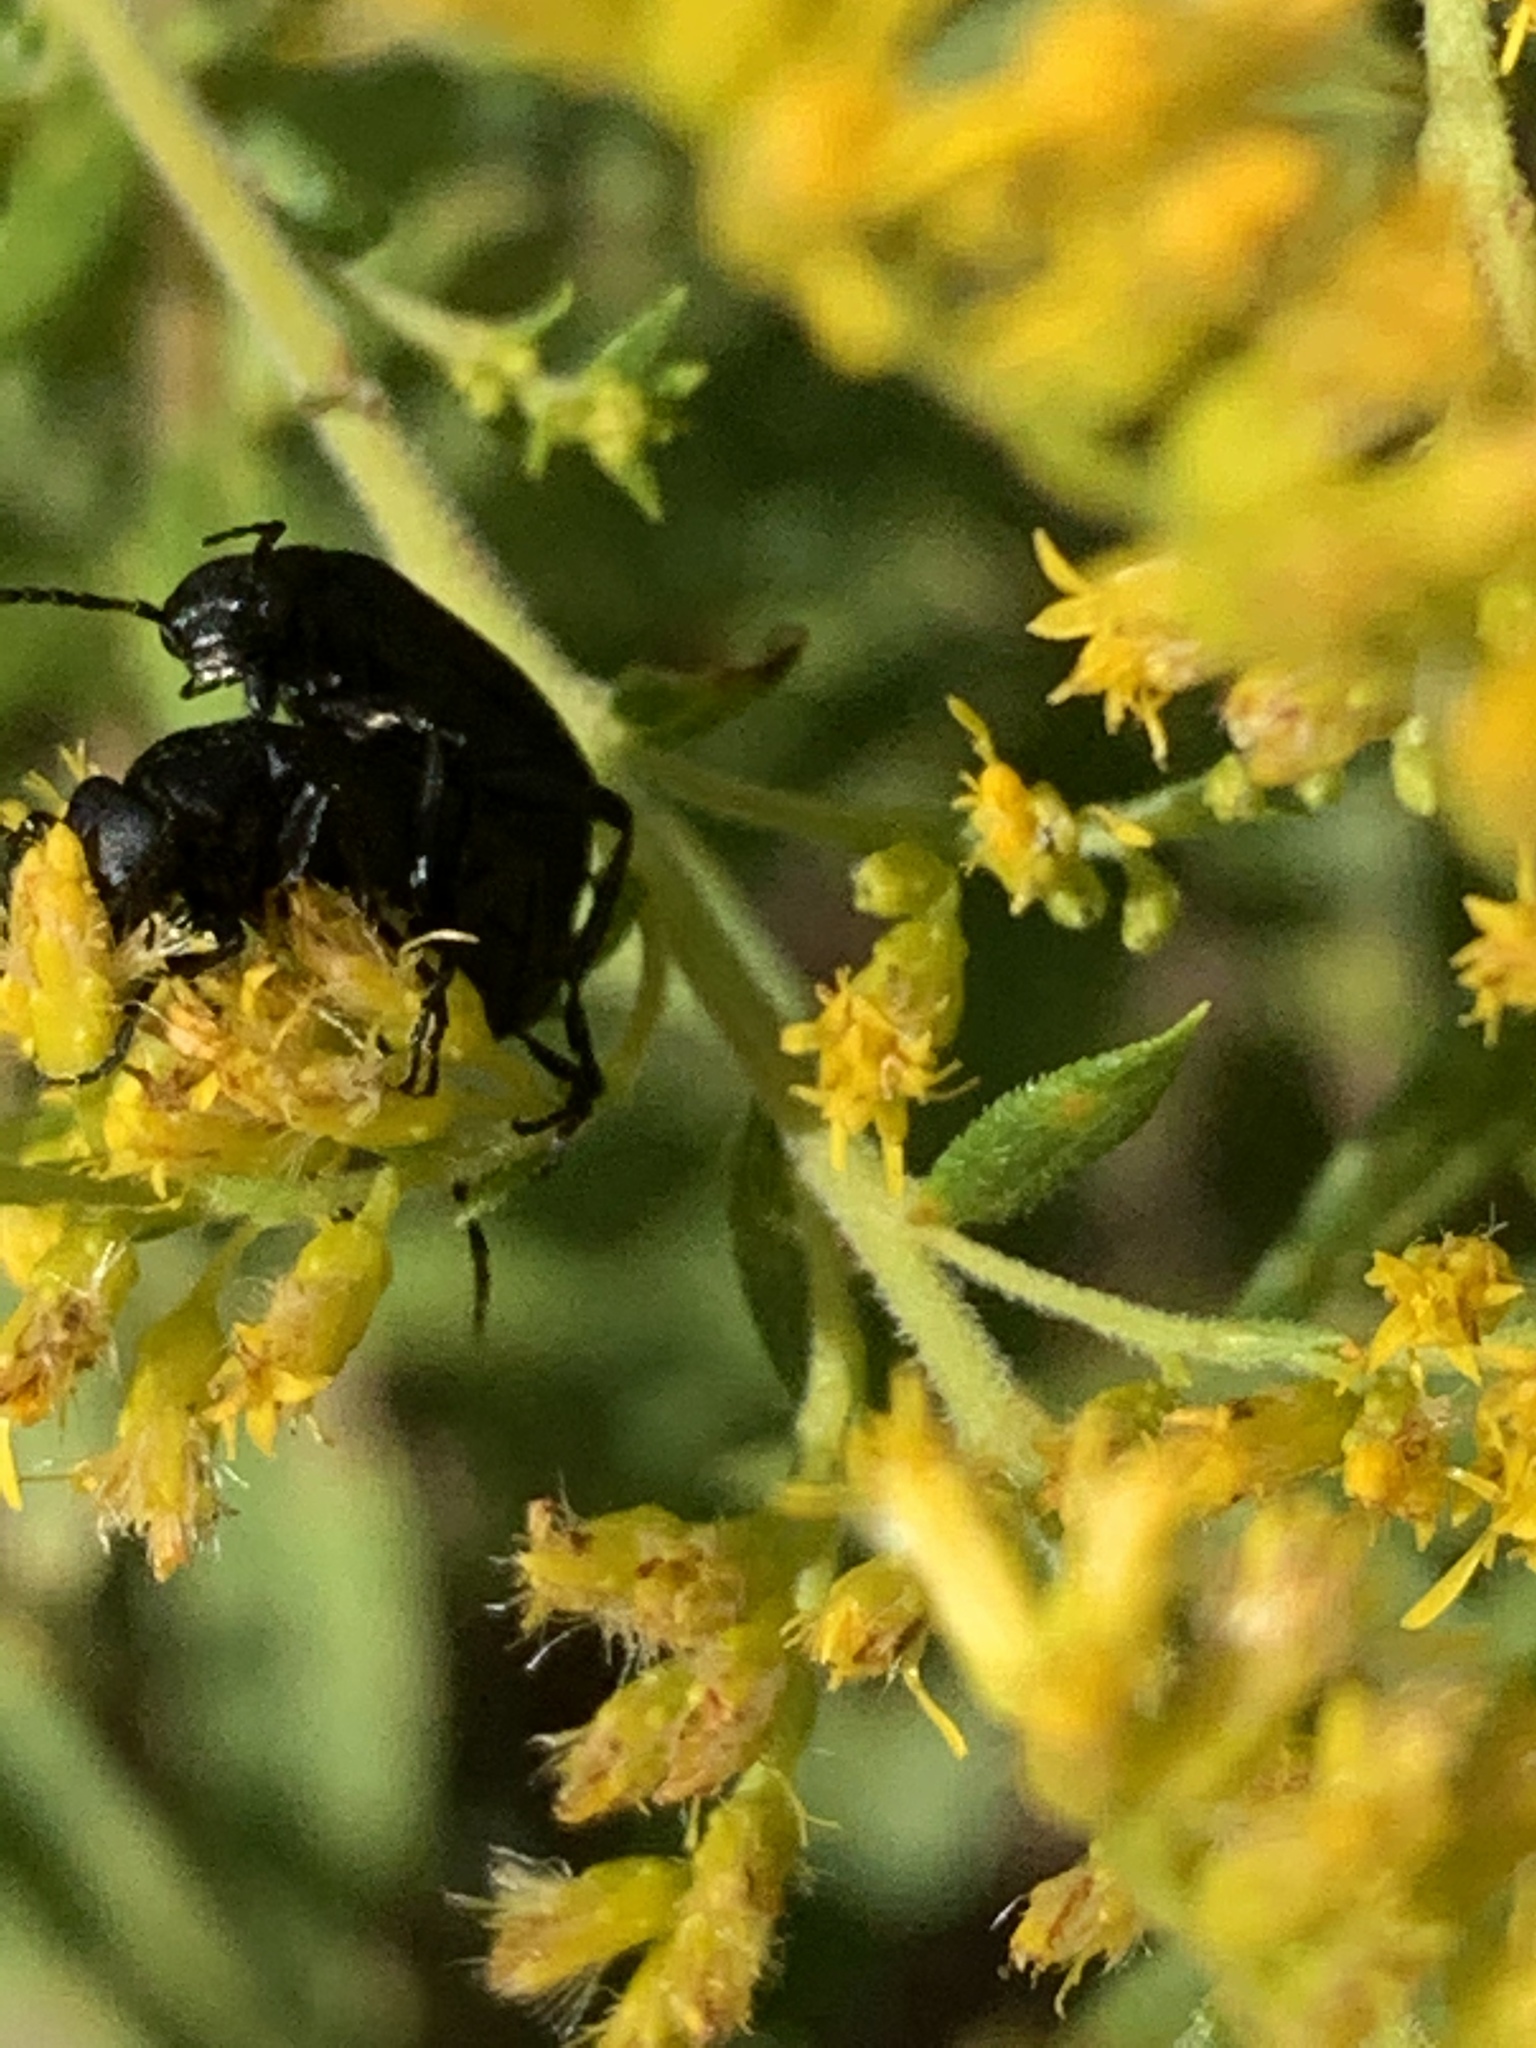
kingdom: Animalia
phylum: Arthropoda
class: Insecta
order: Coleoptera
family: Meloidae
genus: Epicauta
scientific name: Epicauta pensylvanica
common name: Black blister beetle
